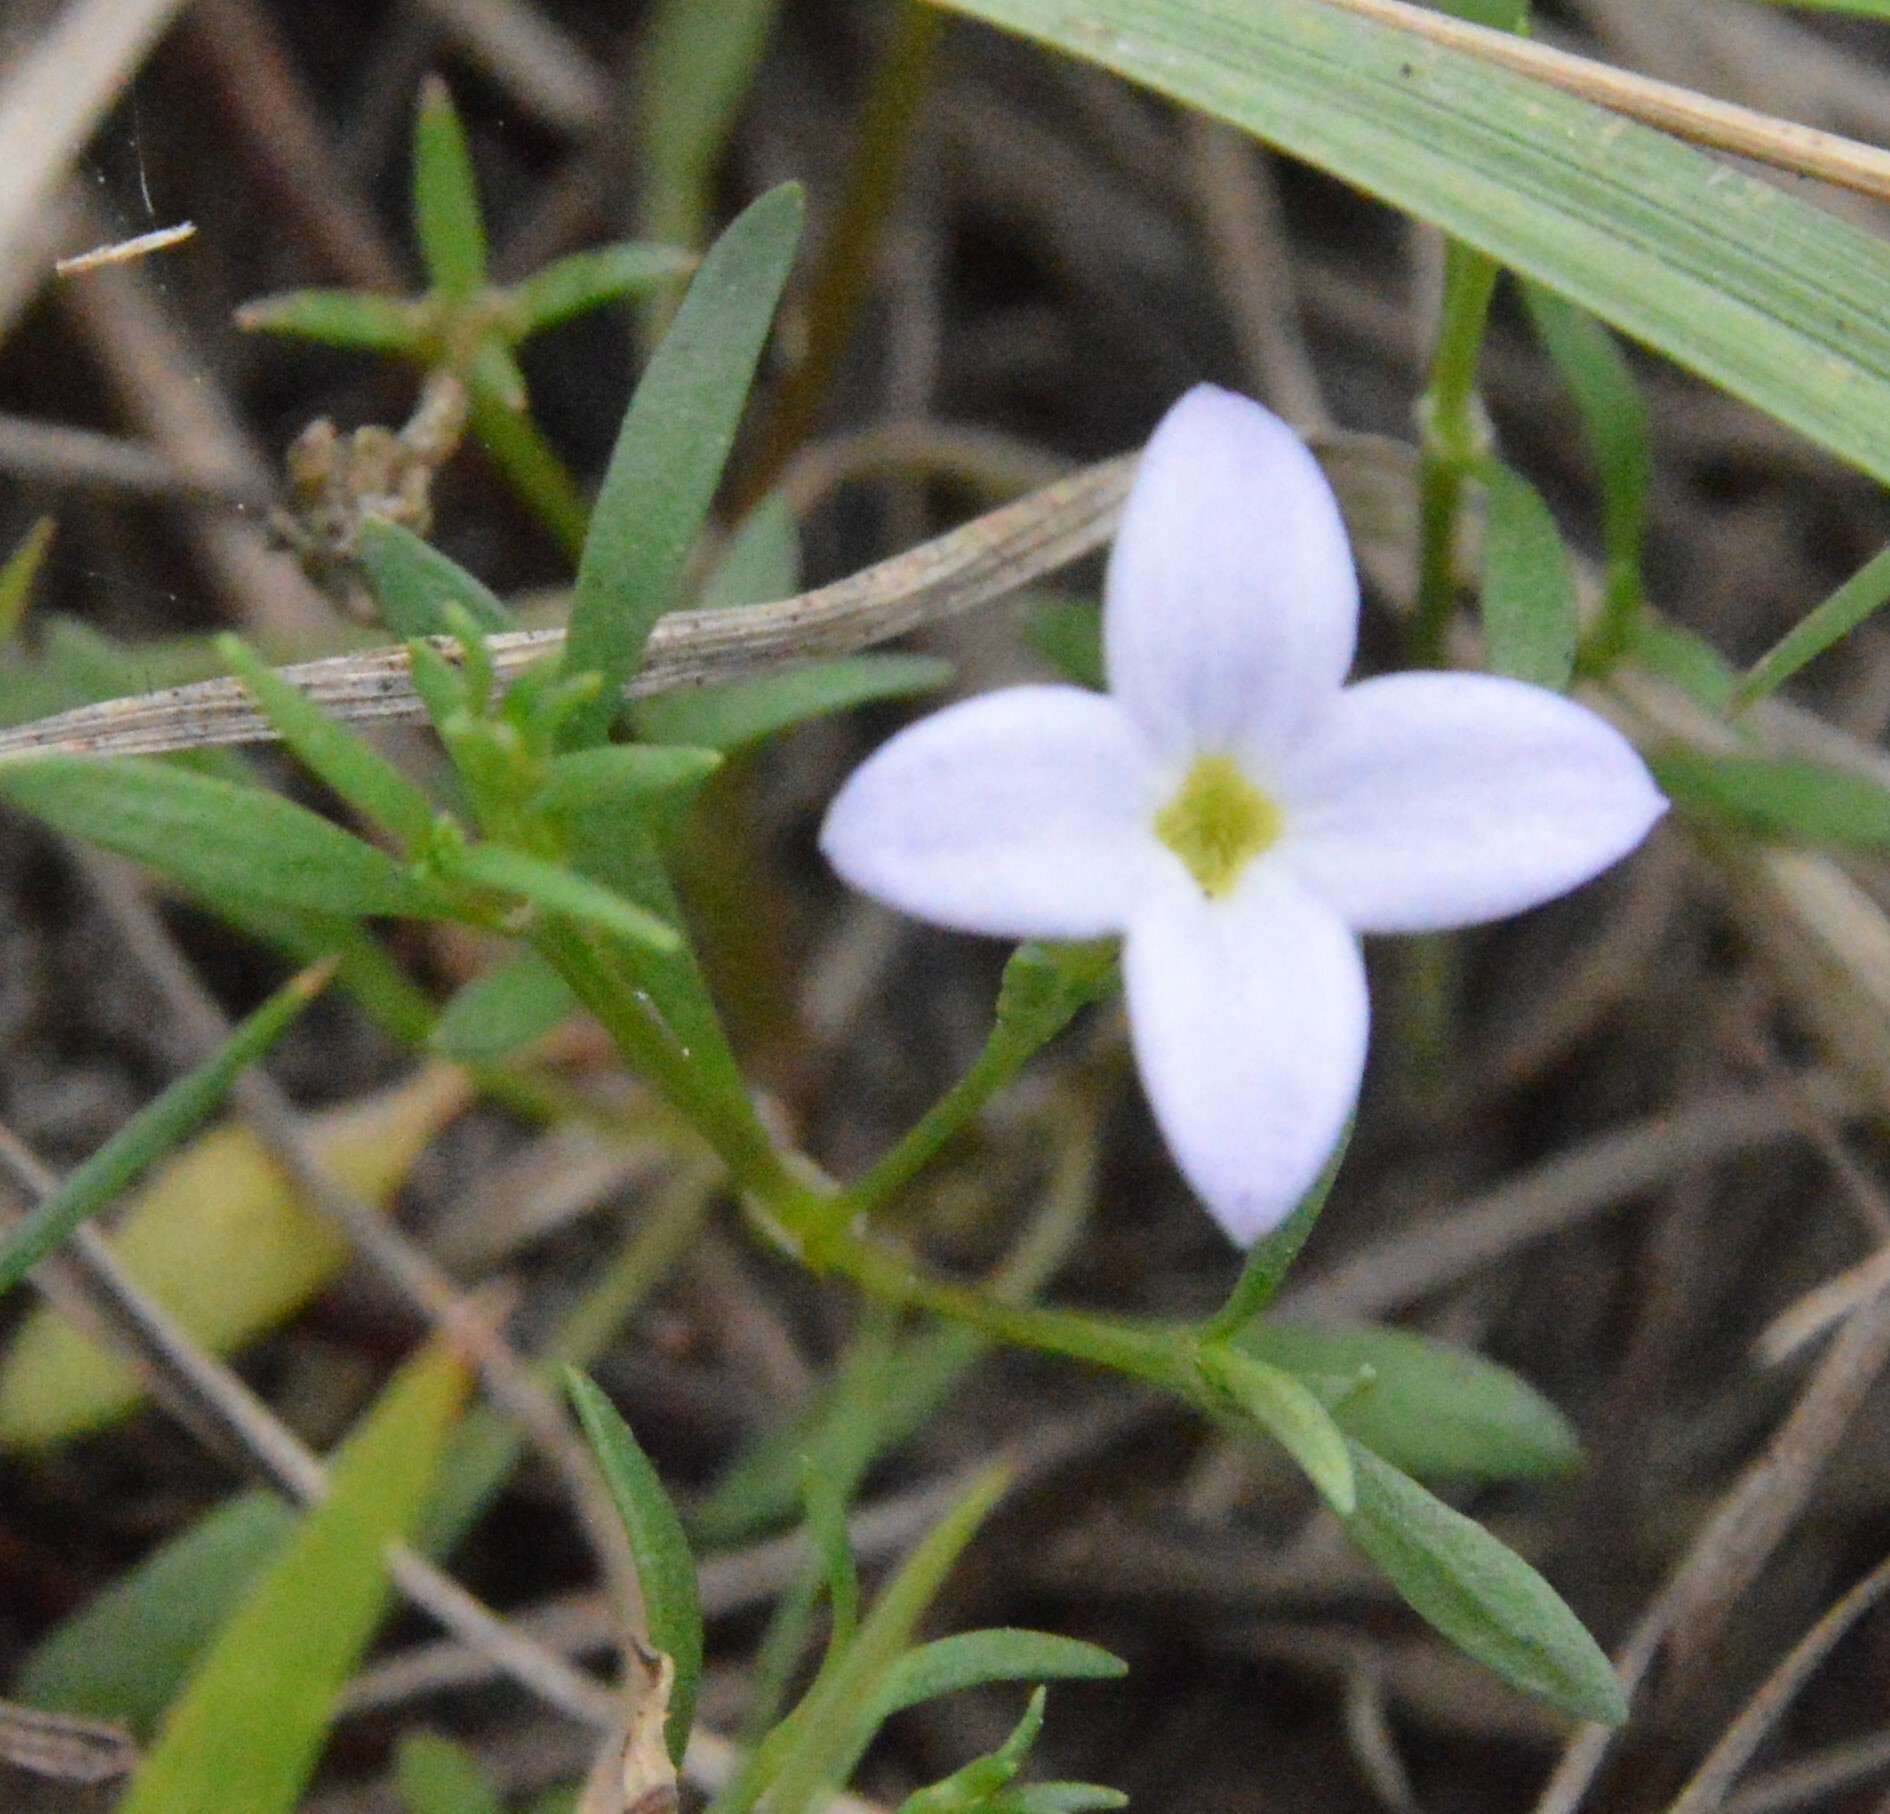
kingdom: Plantae
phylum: Tracheophyta
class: Magnoliopsida
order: Gentianales
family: Rubiaceae
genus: Houstonia
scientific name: Houstonia rosea
